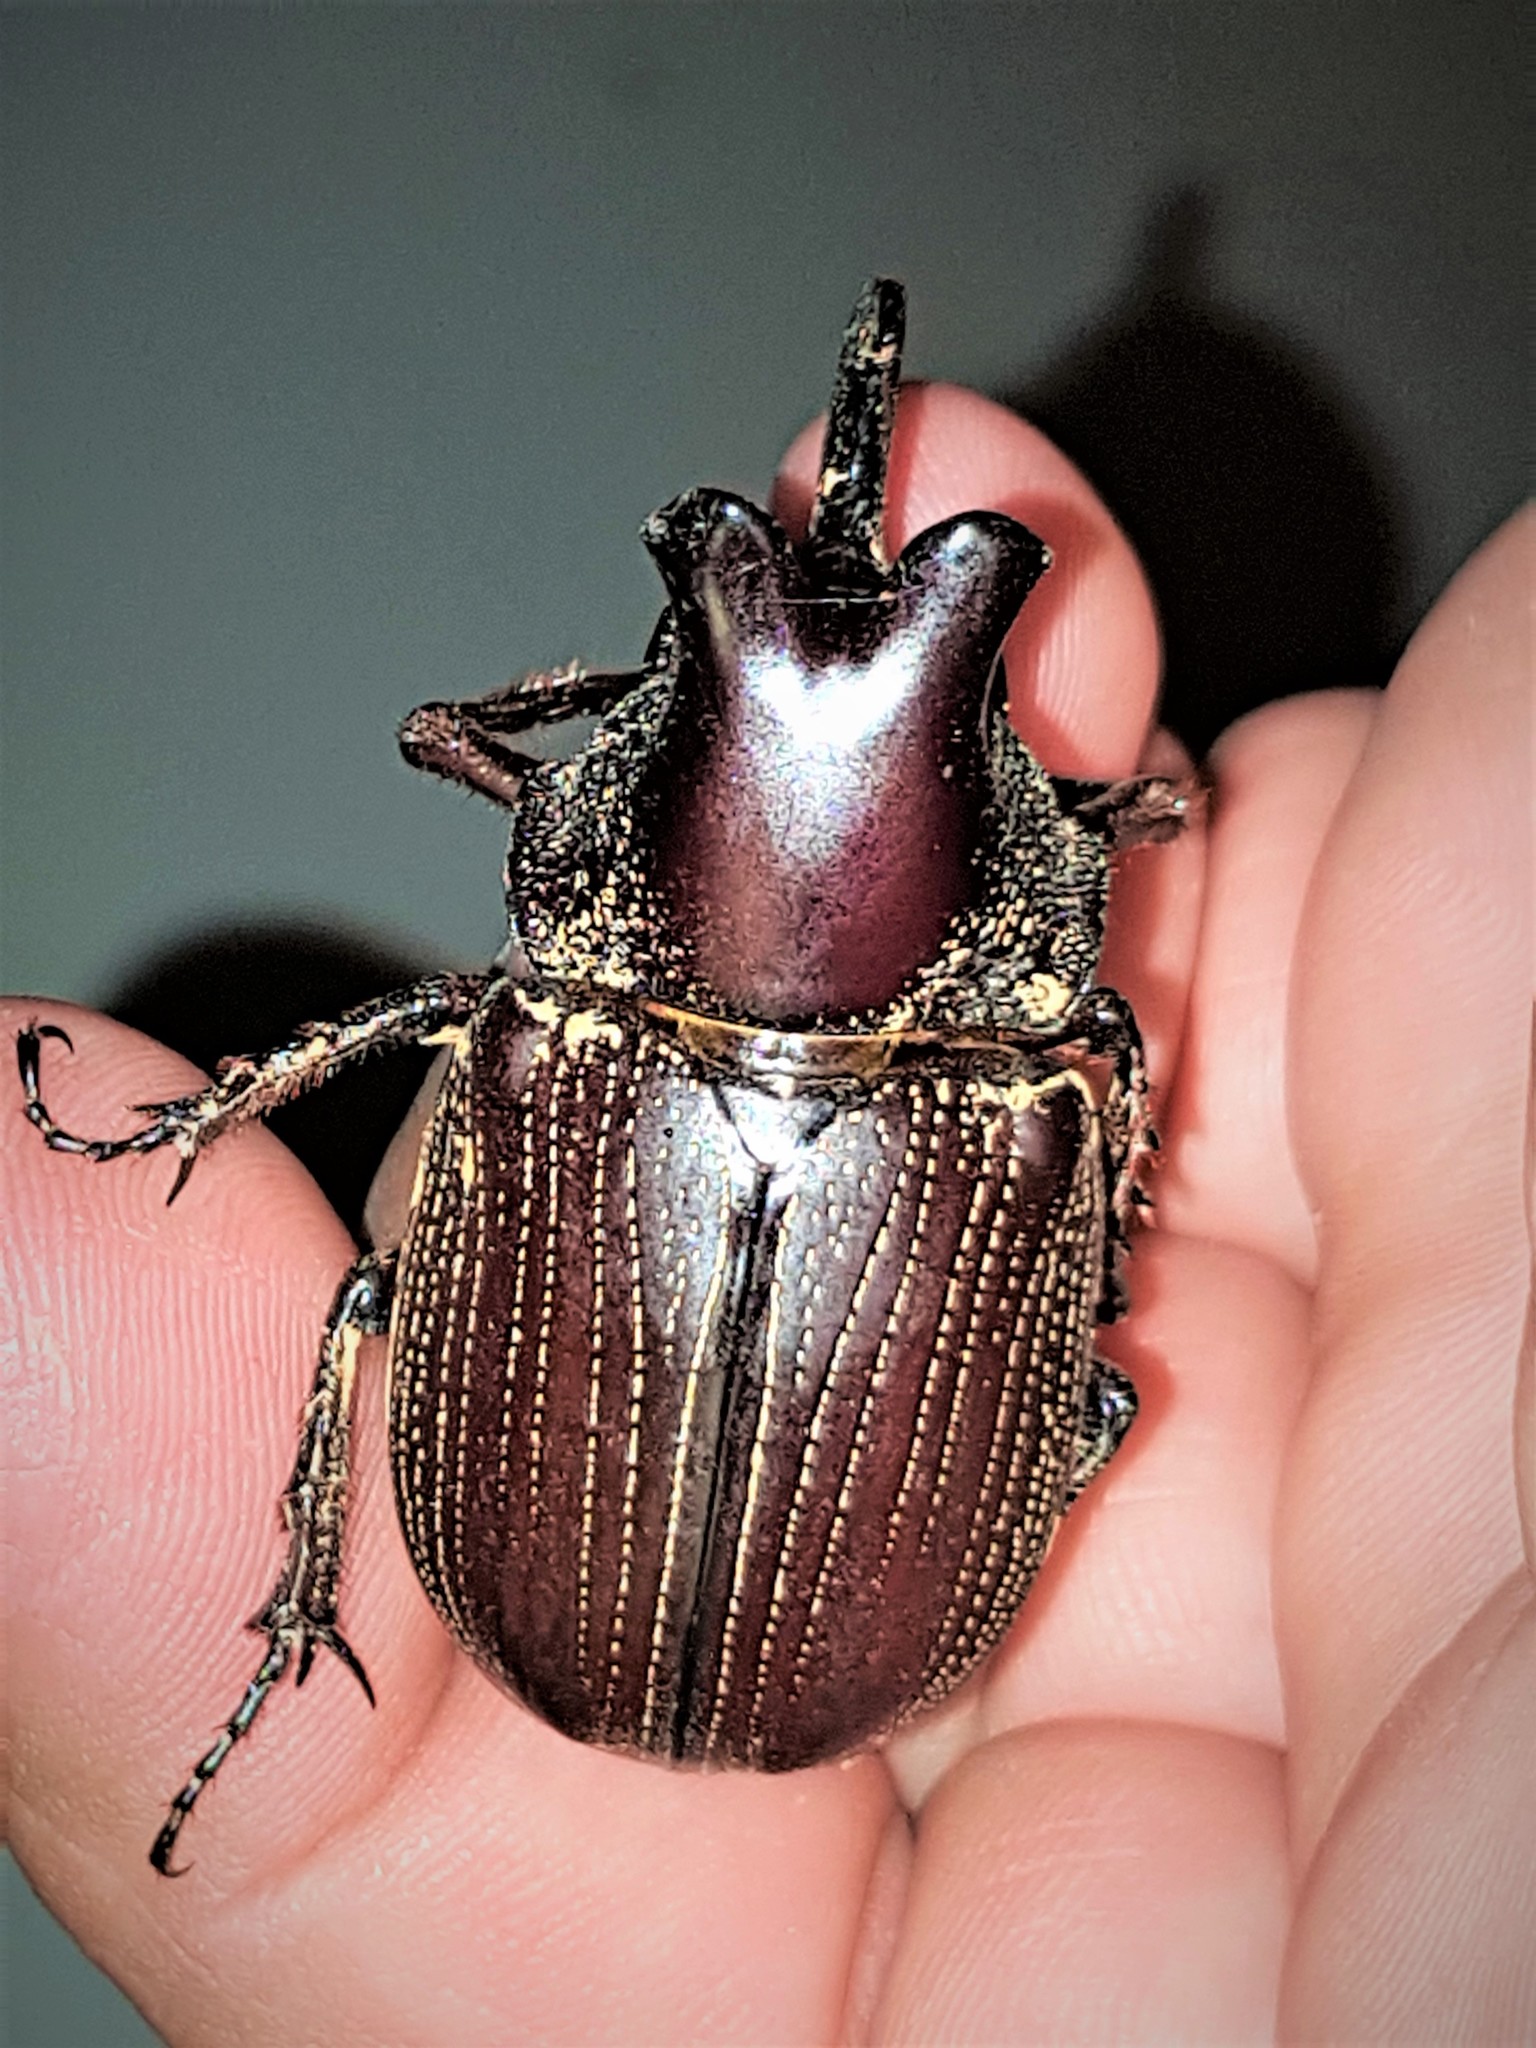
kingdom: Animalia
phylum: Arthropoda
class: Insecta
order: Coleoptera
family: Scarabaeidae
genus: Coelosis
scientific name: Coelosis biloba
